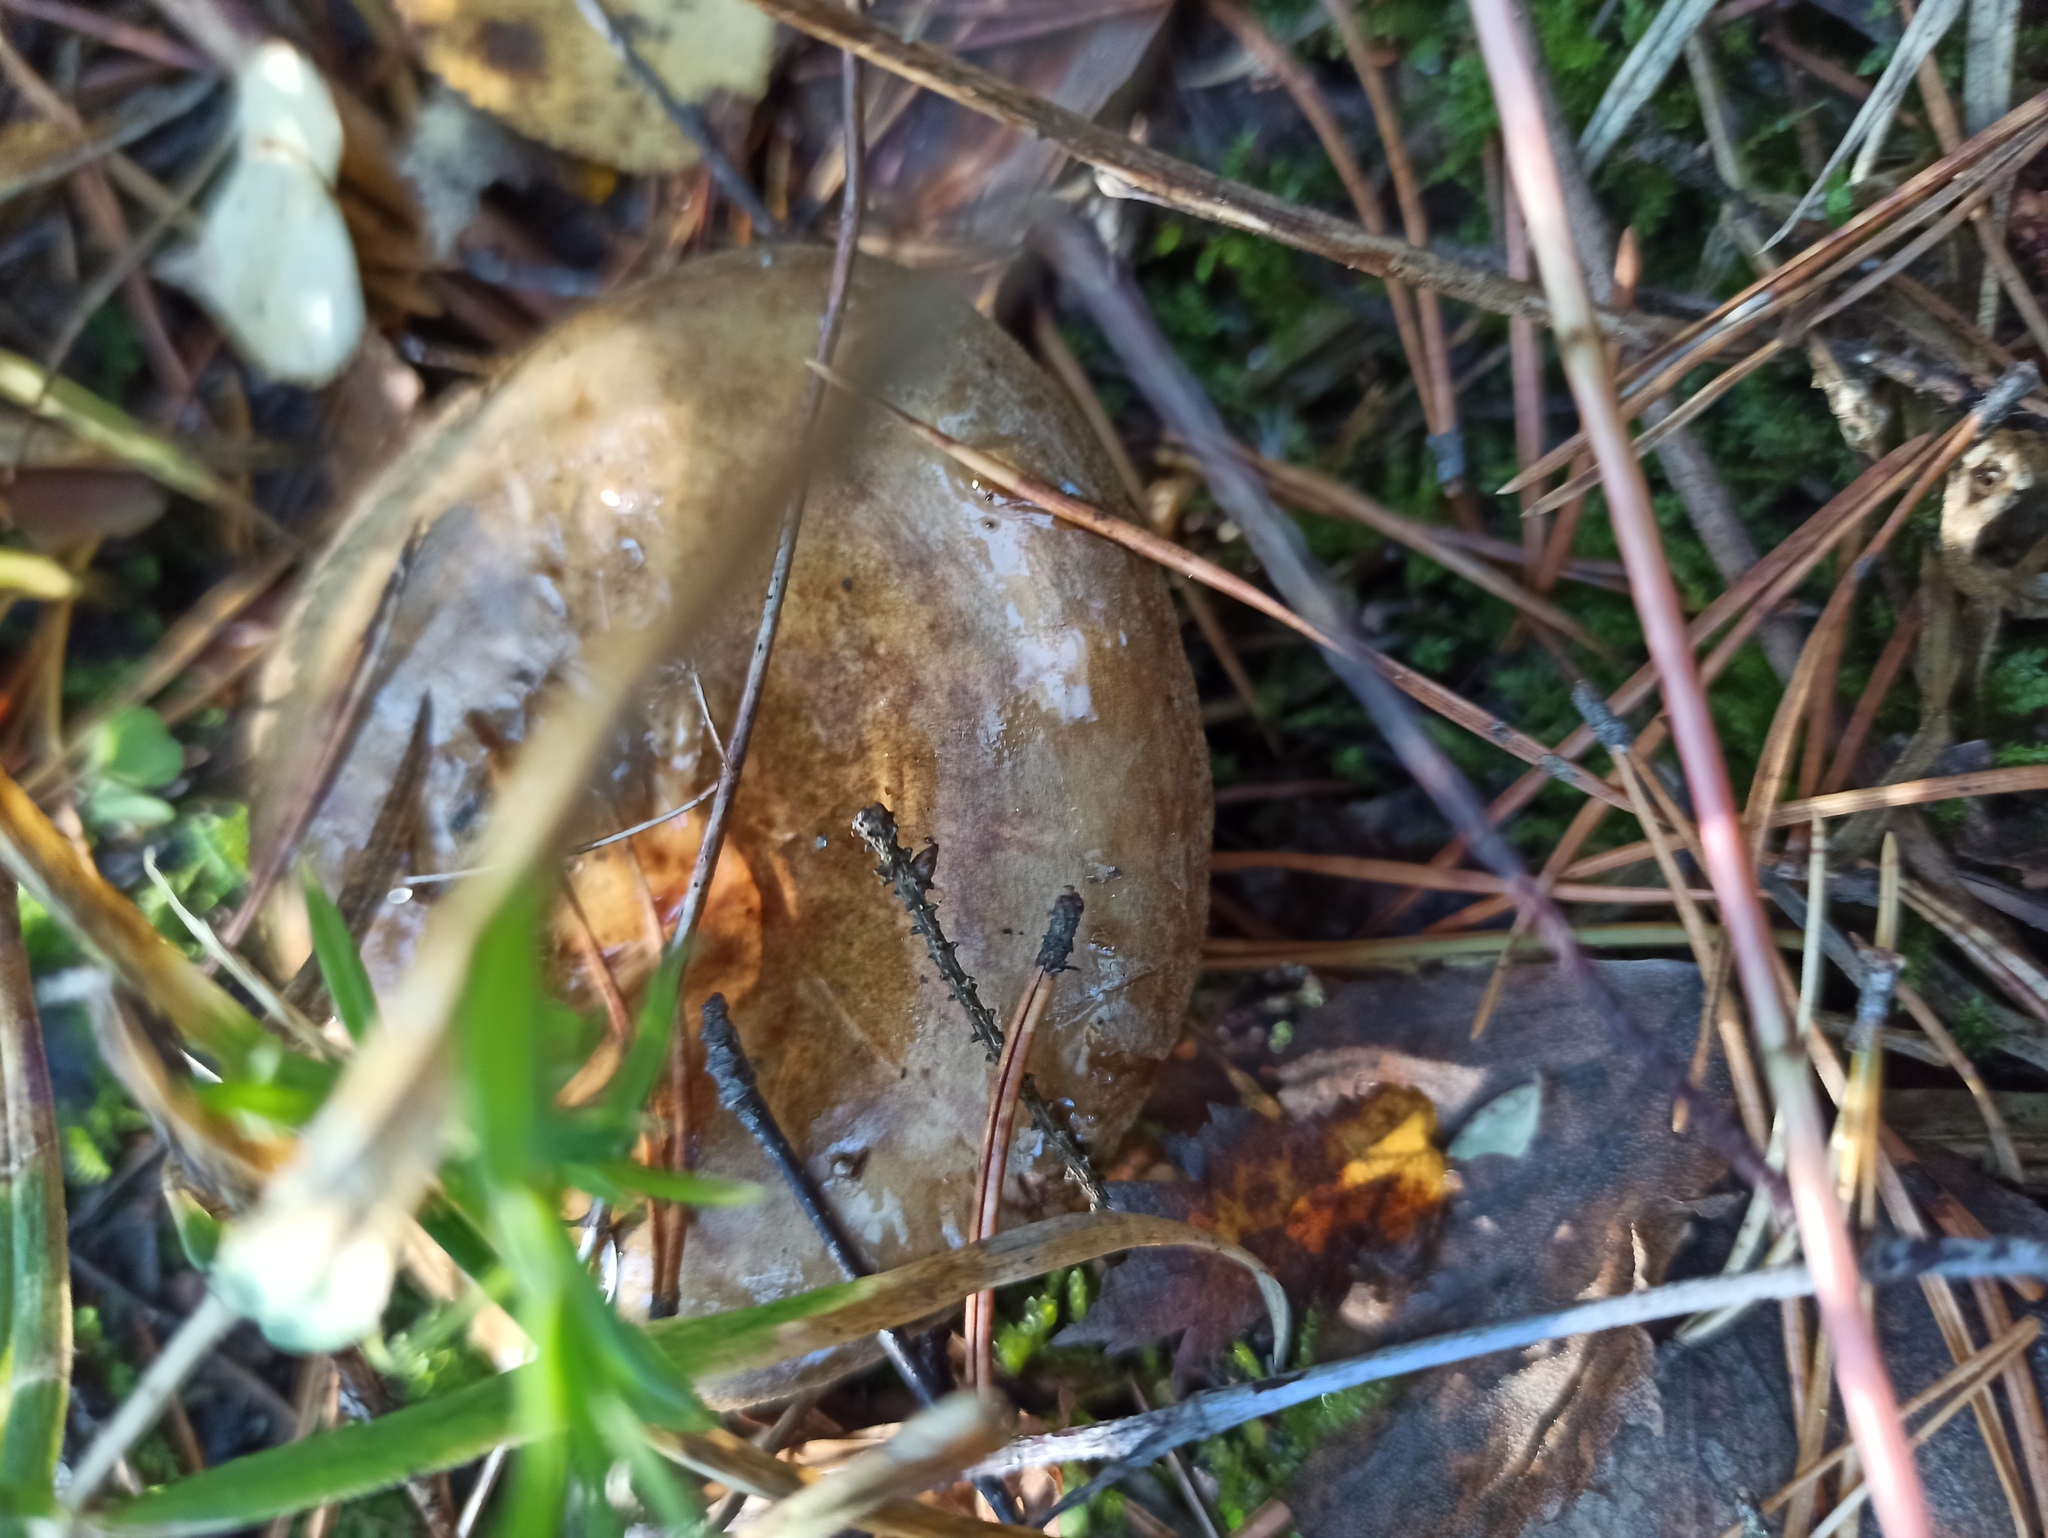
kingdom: Fungi
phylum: Basidiomycota
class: Agaricomycetes
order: Boletales
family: Paxillaceae
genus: Paxillus
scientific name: Paxillus involutus
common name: Brown roll rim
